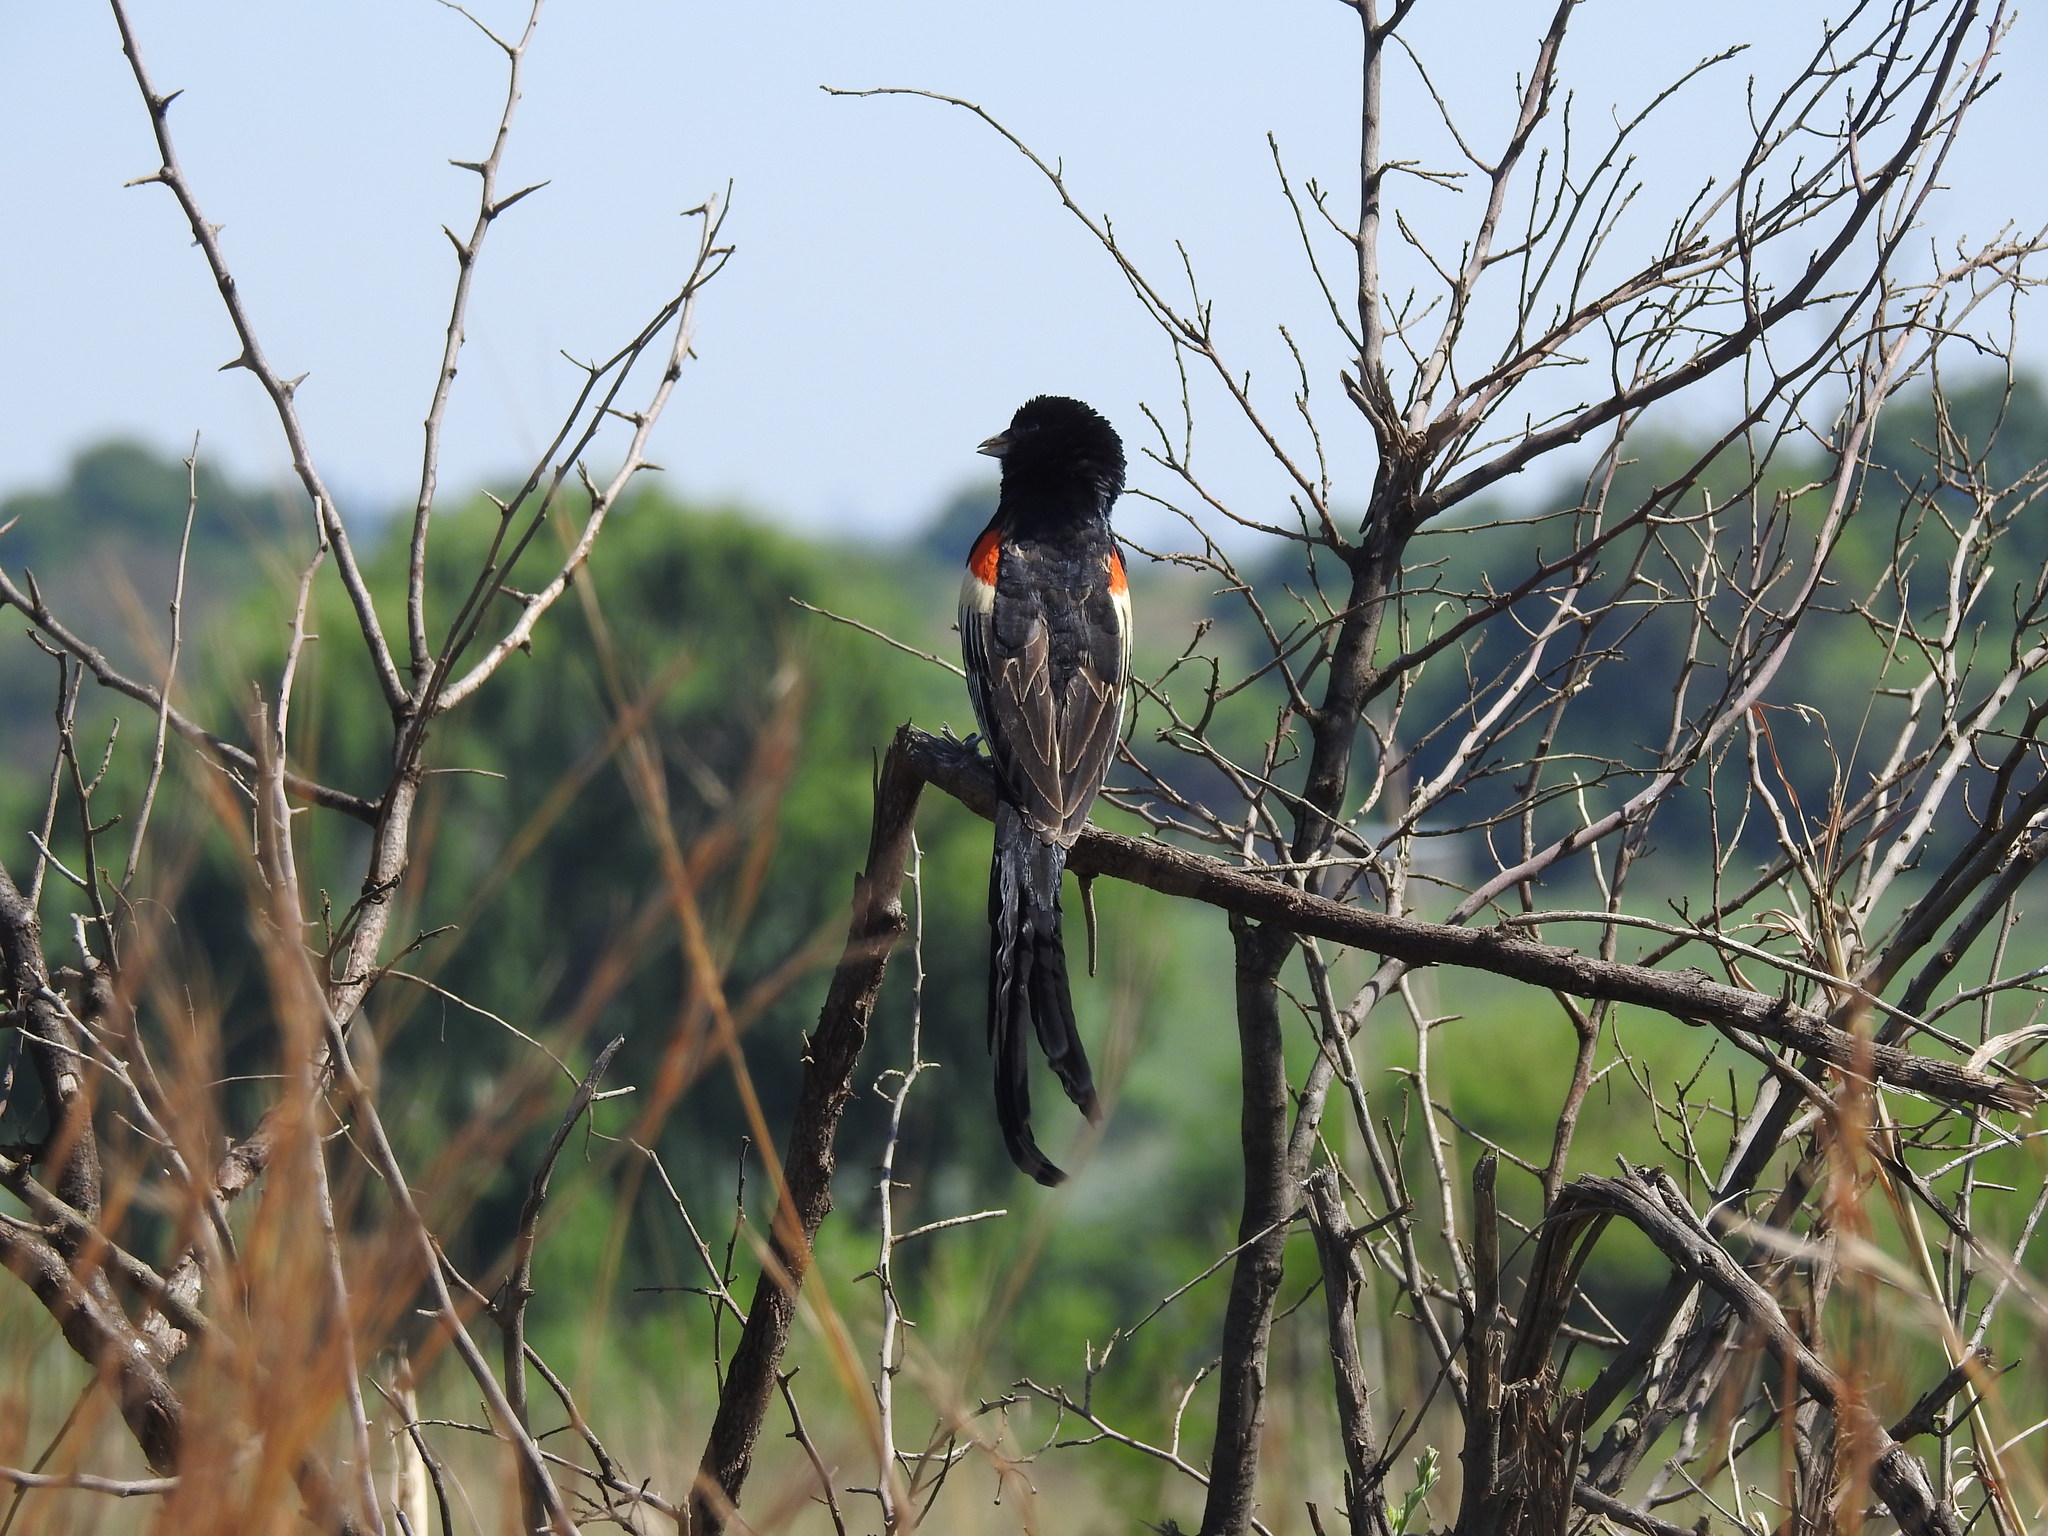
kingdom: Animalia
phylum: Chordata
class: Aves
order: Passeriformes
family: Ploceidae
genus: Euplectes
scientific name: Euplectes progne
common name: Long-tailed widowbird
